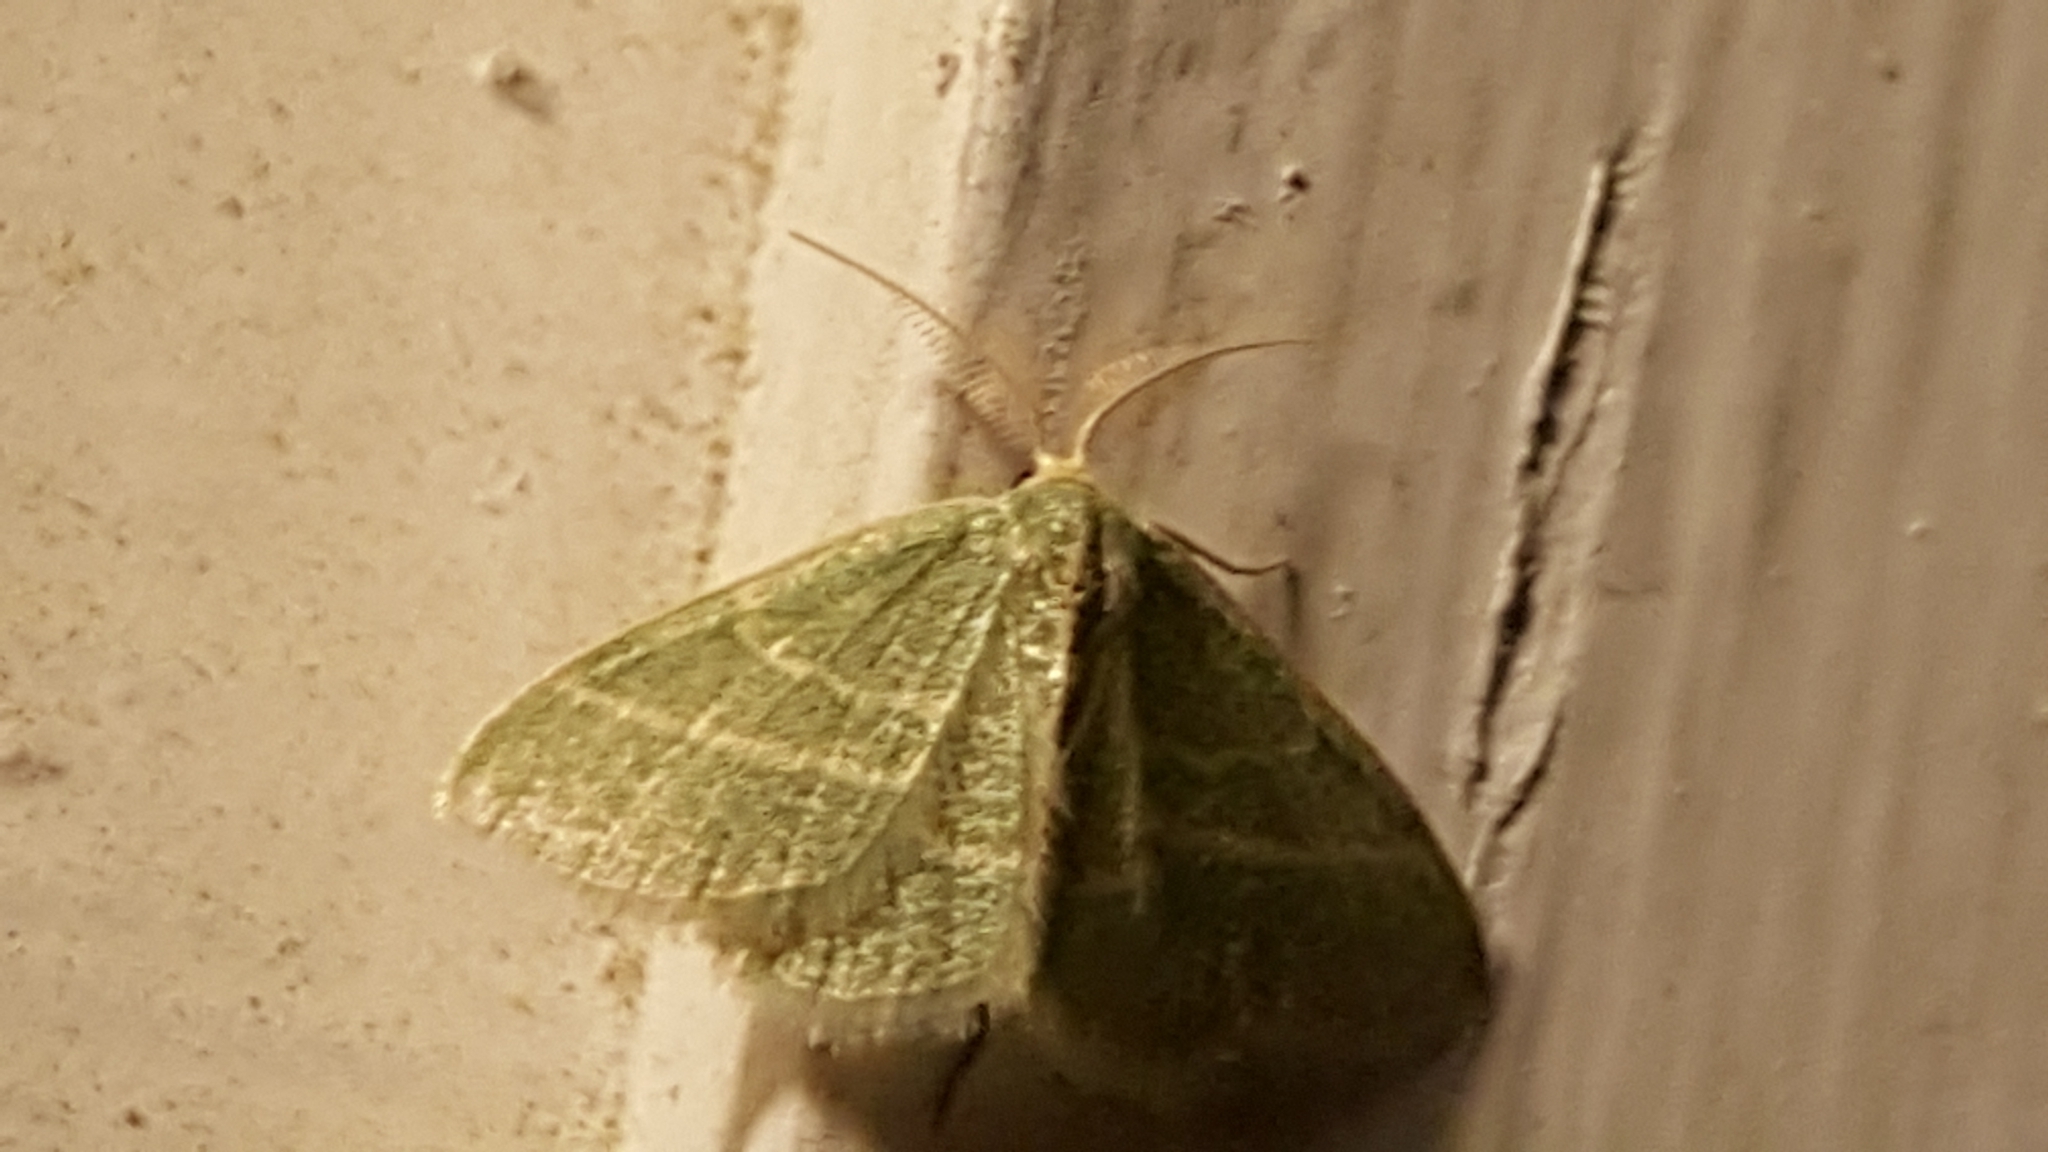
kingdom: Animalia
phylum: Arthropoda
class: Insecta
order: Lepidoptera
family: Geometridae
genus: Chlorochlamys
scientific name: Chlorochlamys chloroleucaria
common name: Blackberry looper
